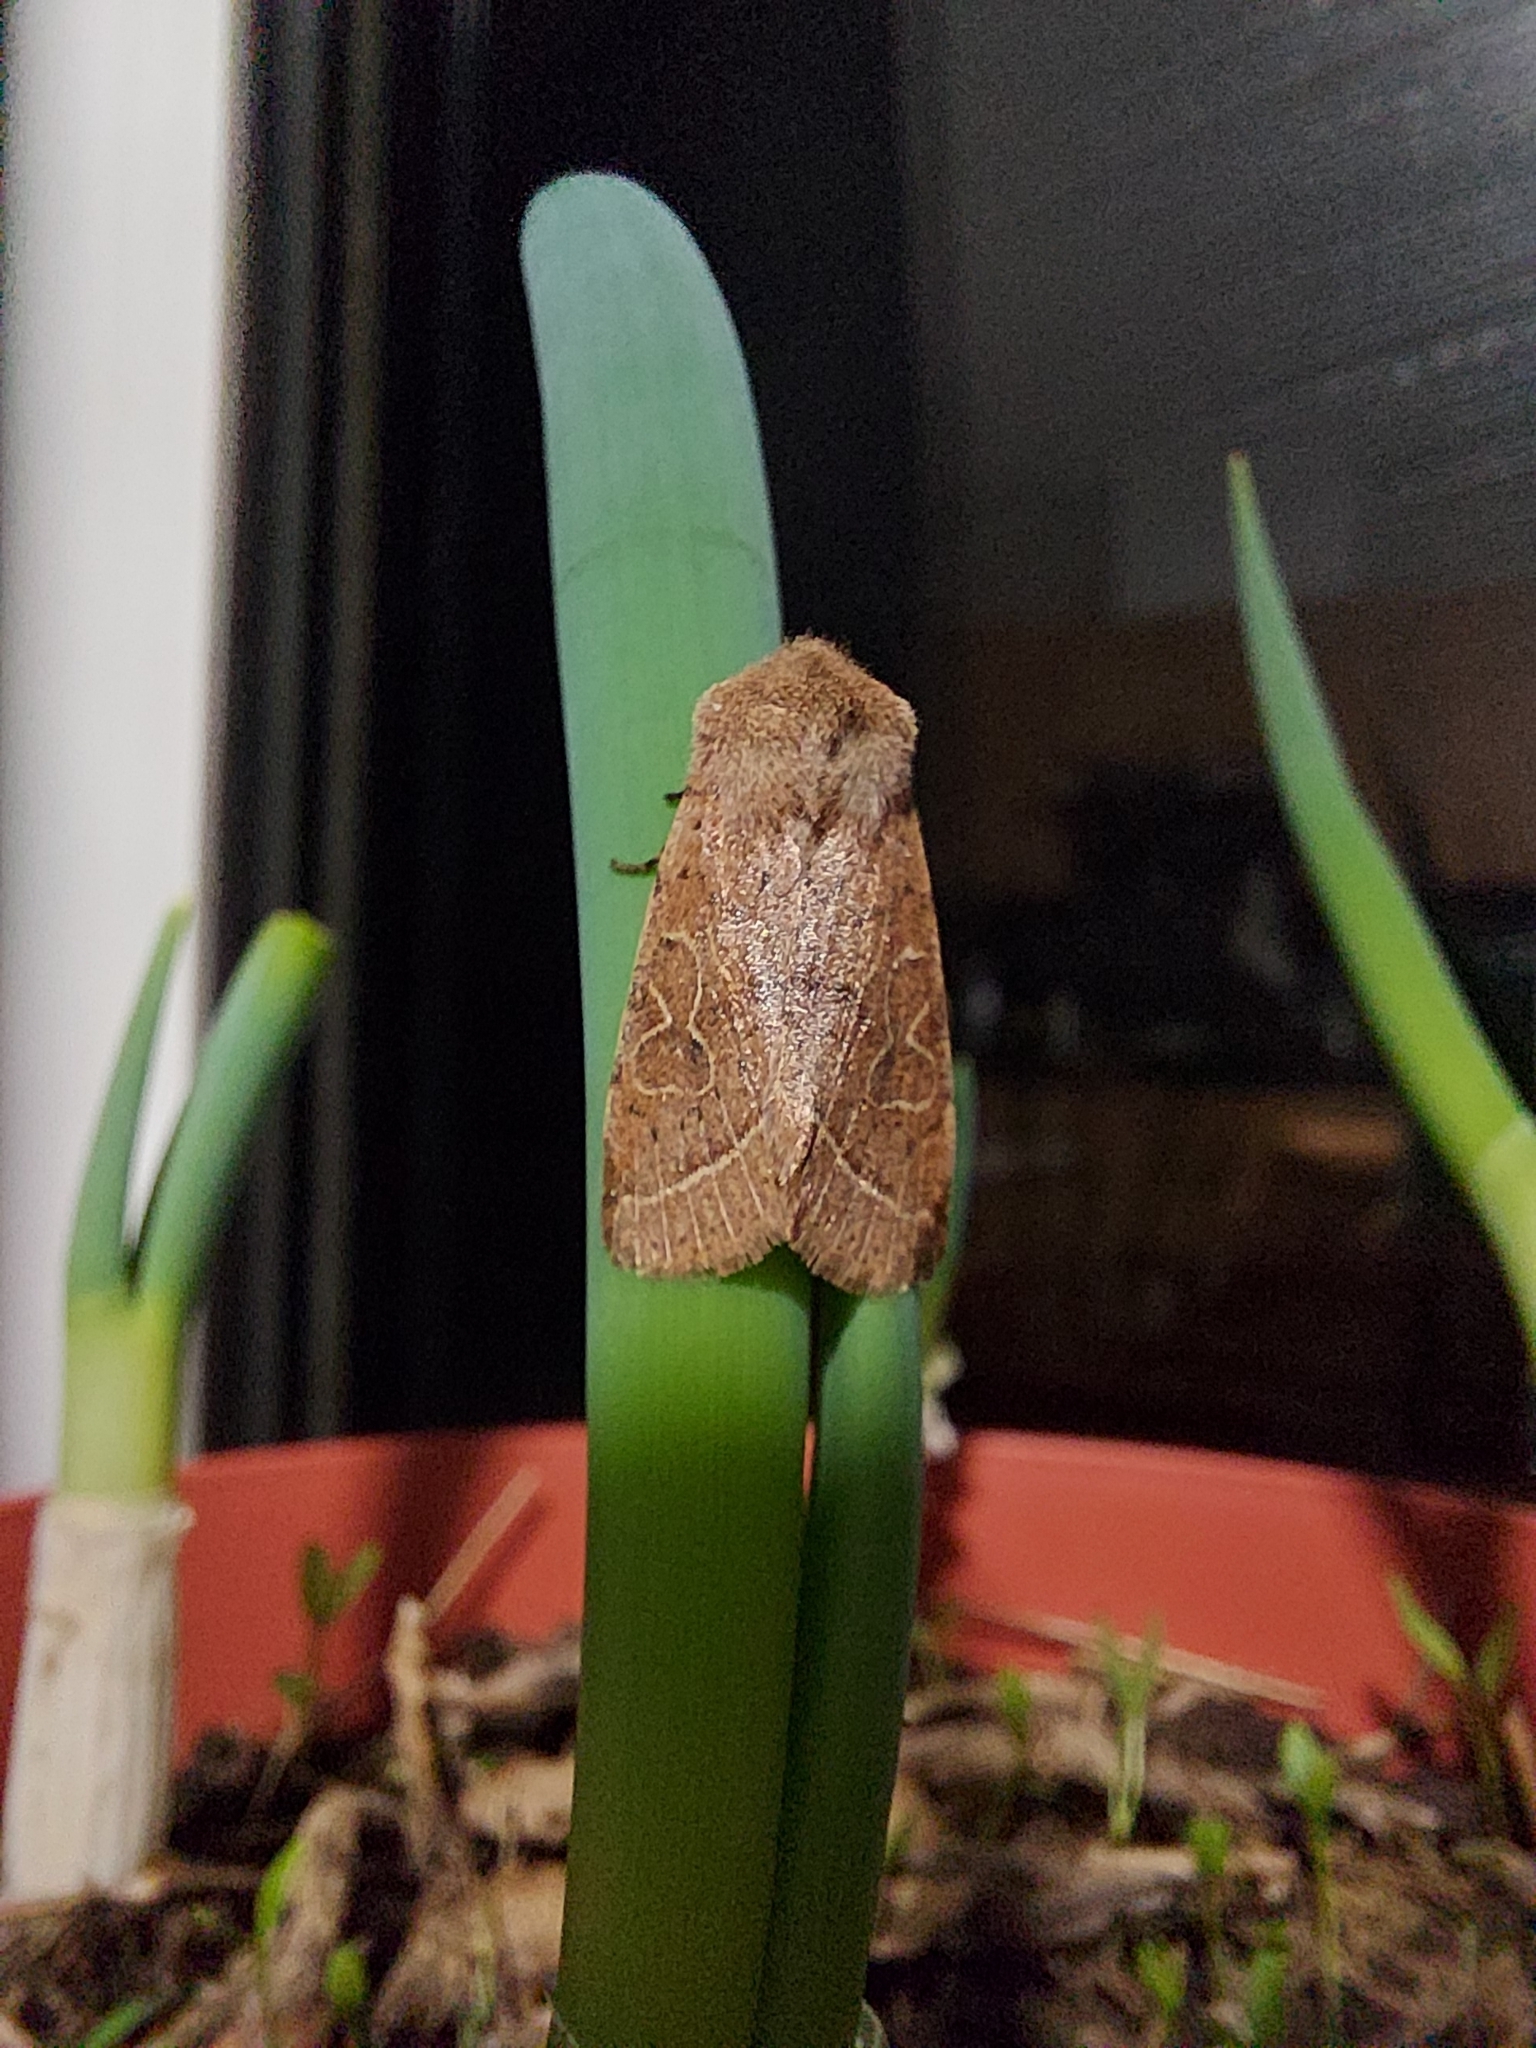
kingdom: Animalia
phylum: Arthropoda
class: Insecta
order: Lepidoptera
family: Noctuidae
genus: Orthosia
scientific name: Orthosia cerasi
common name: Common quaker
